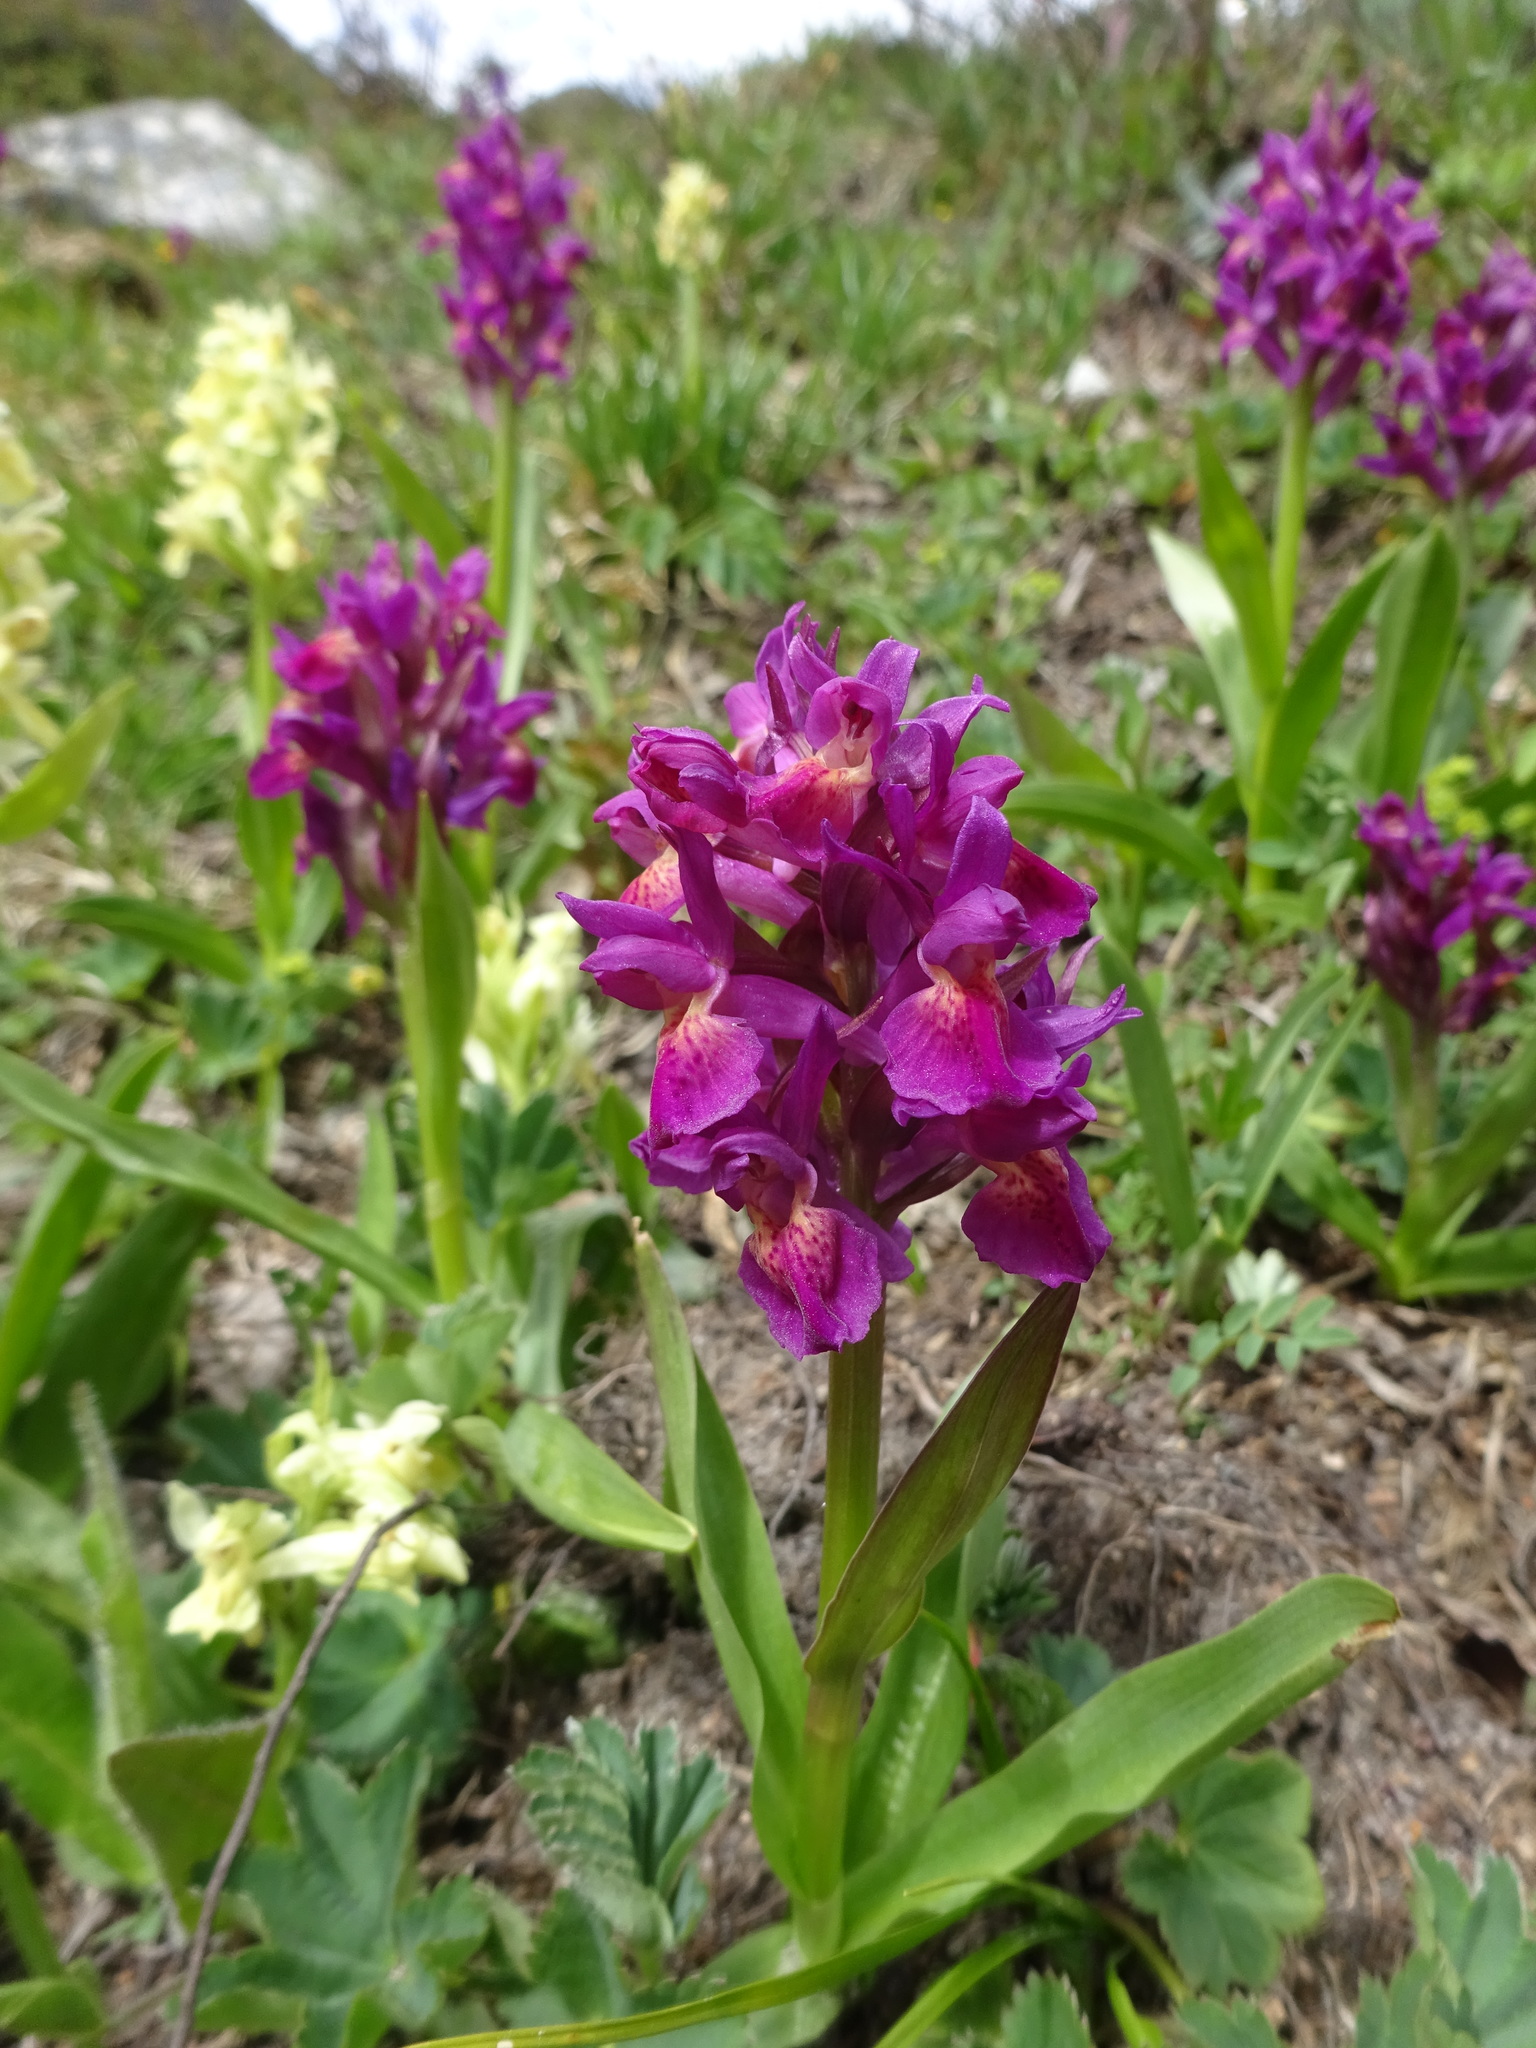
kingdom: Plantae
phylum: Tracheophyta
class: Liliopsida
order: Asparagales
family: Orchidaceae
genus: Dactylorhiza
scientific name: Dactylorhiza sambucina
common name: Elder-flowered orchid
